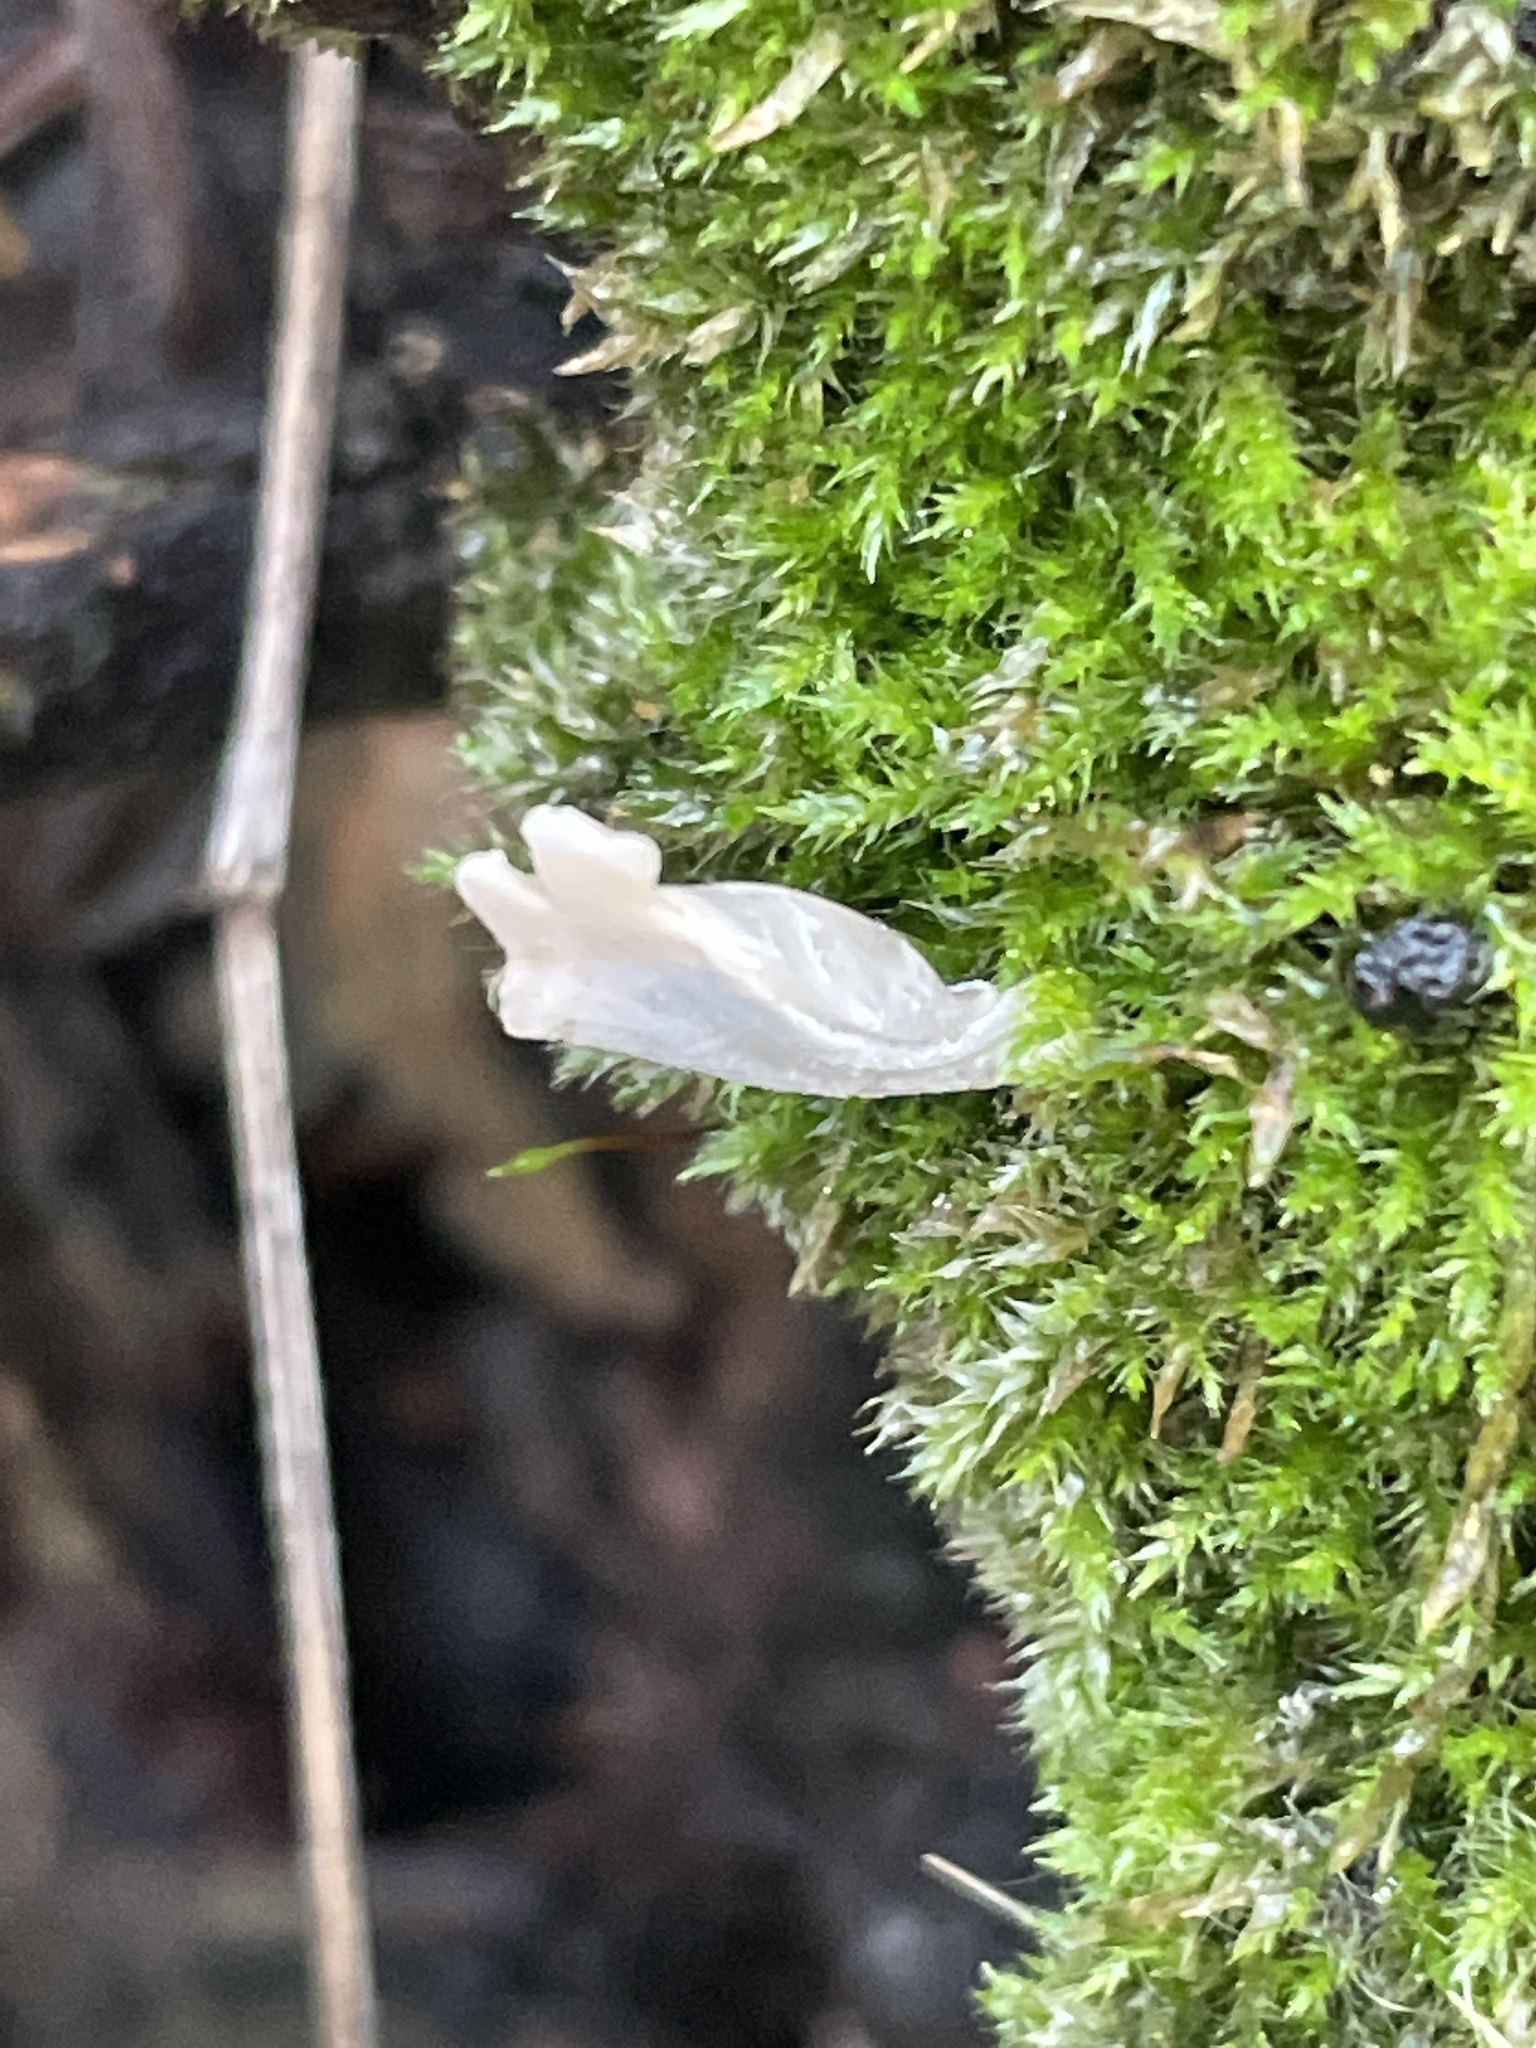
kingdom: Fungi
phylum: Ascomycota
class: Sordariomycetes
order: Xylariales
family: Xylariaceae
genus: Xylaria
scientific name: Xylaria hypoxylon
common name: Candle-snuff fungus
